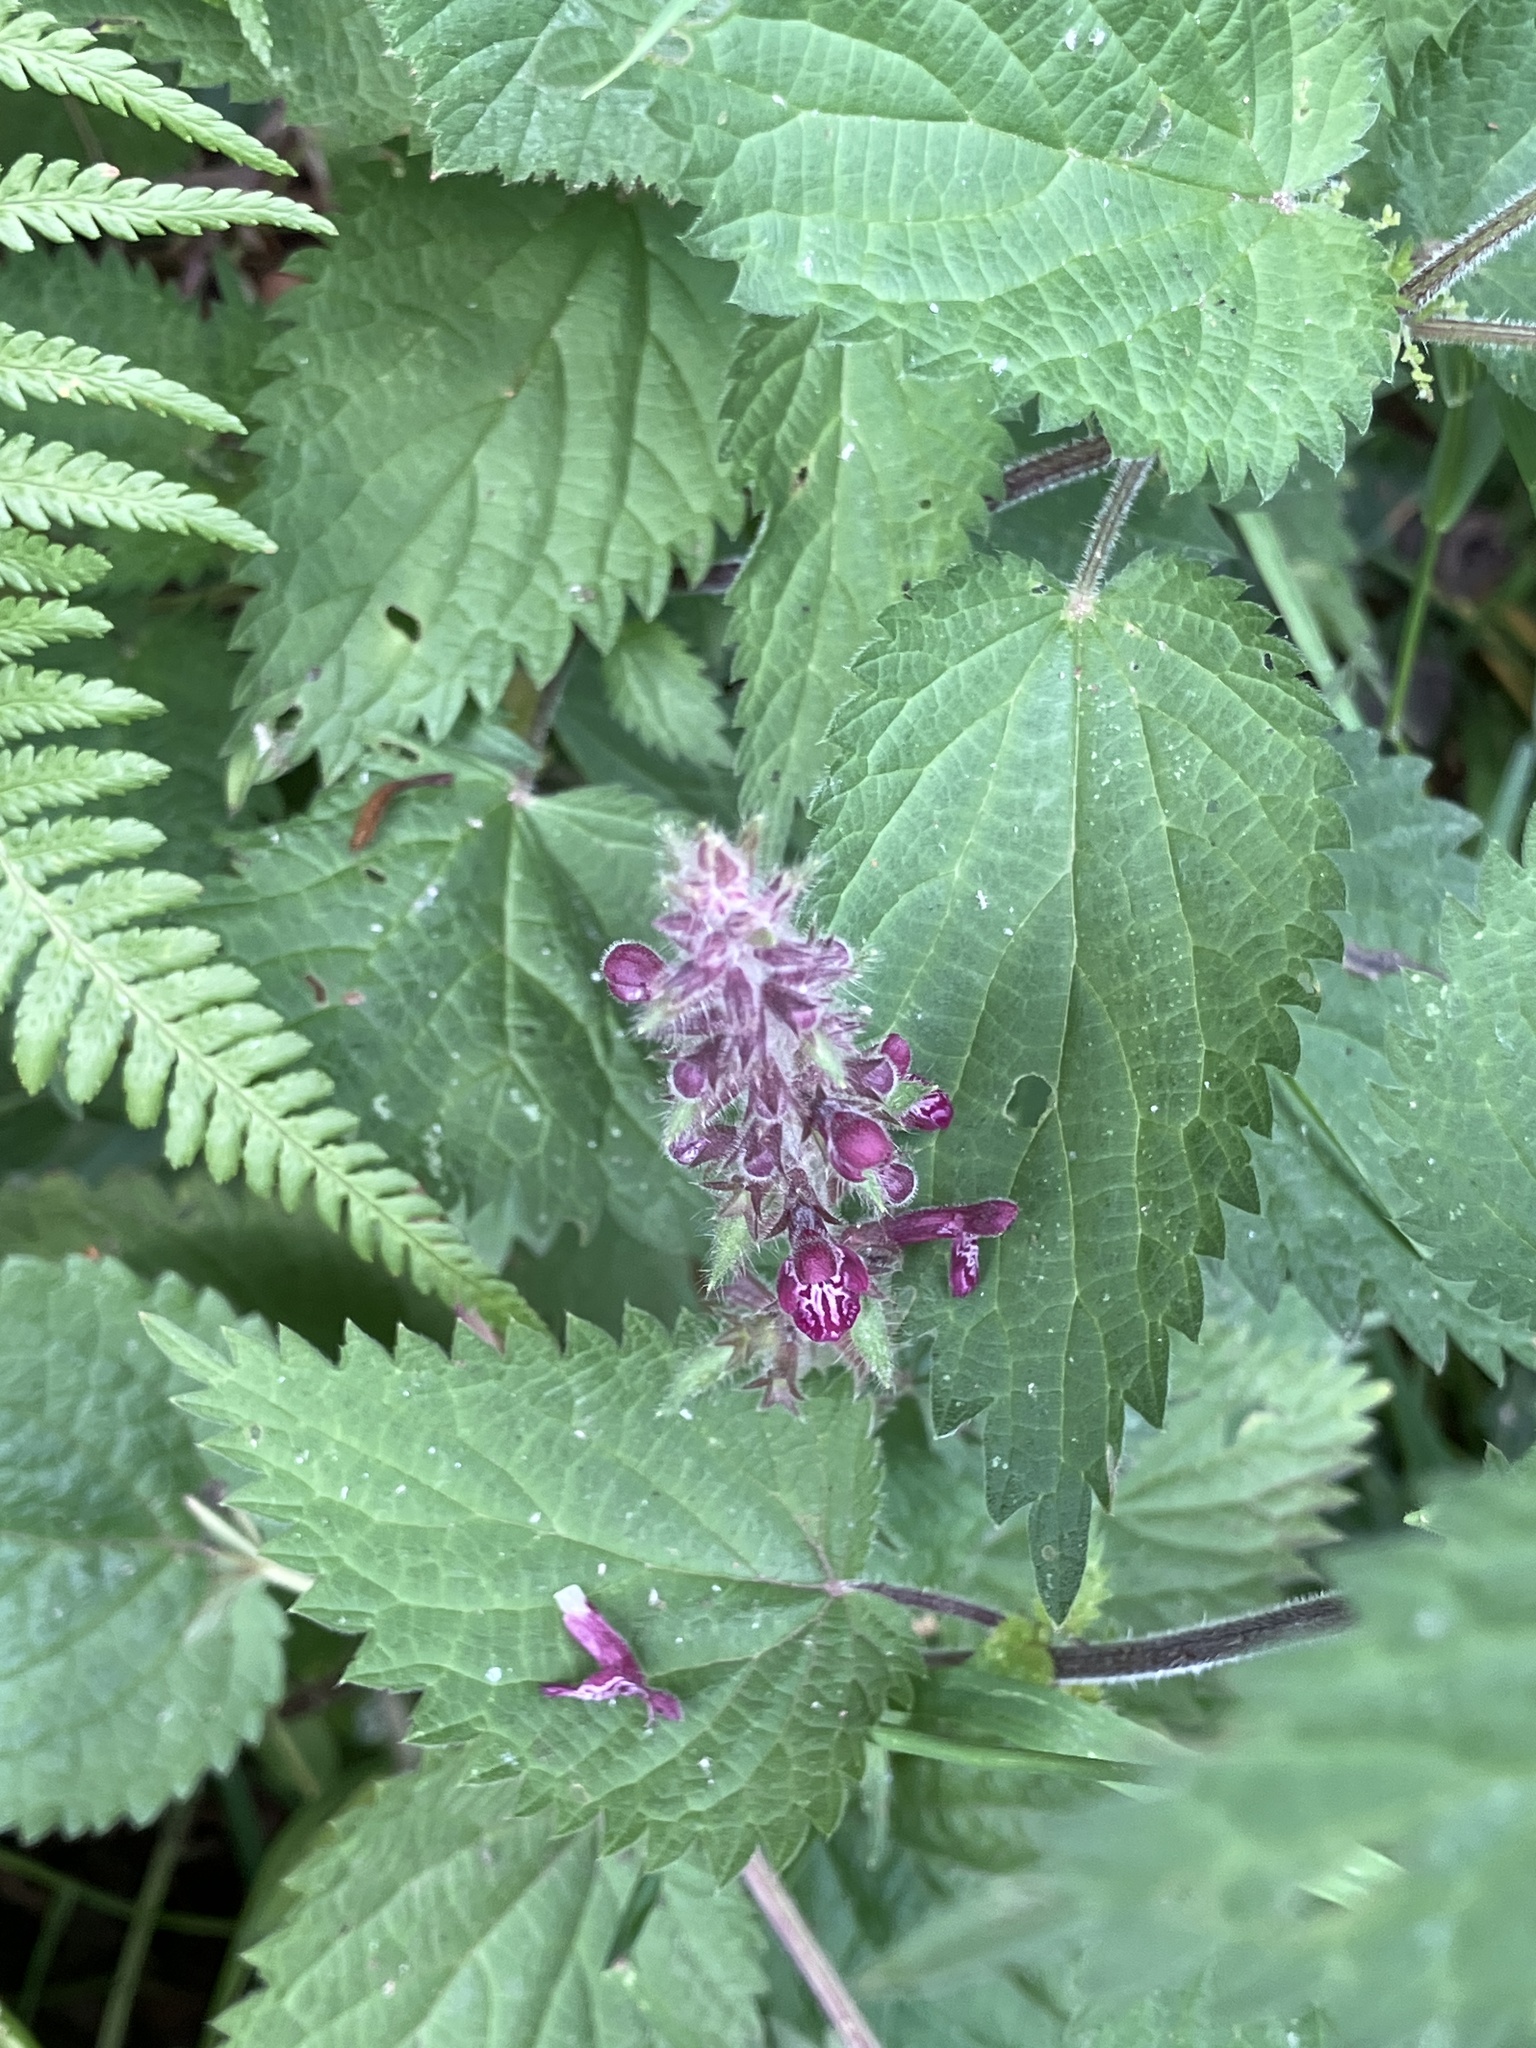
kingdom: Plantae
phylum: Tracheophyta
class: Magnoliopsida
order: Lamiales
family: Lamiaceae
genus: Stachys
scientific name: Stachys sylvatica
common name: Hedge woundwort
